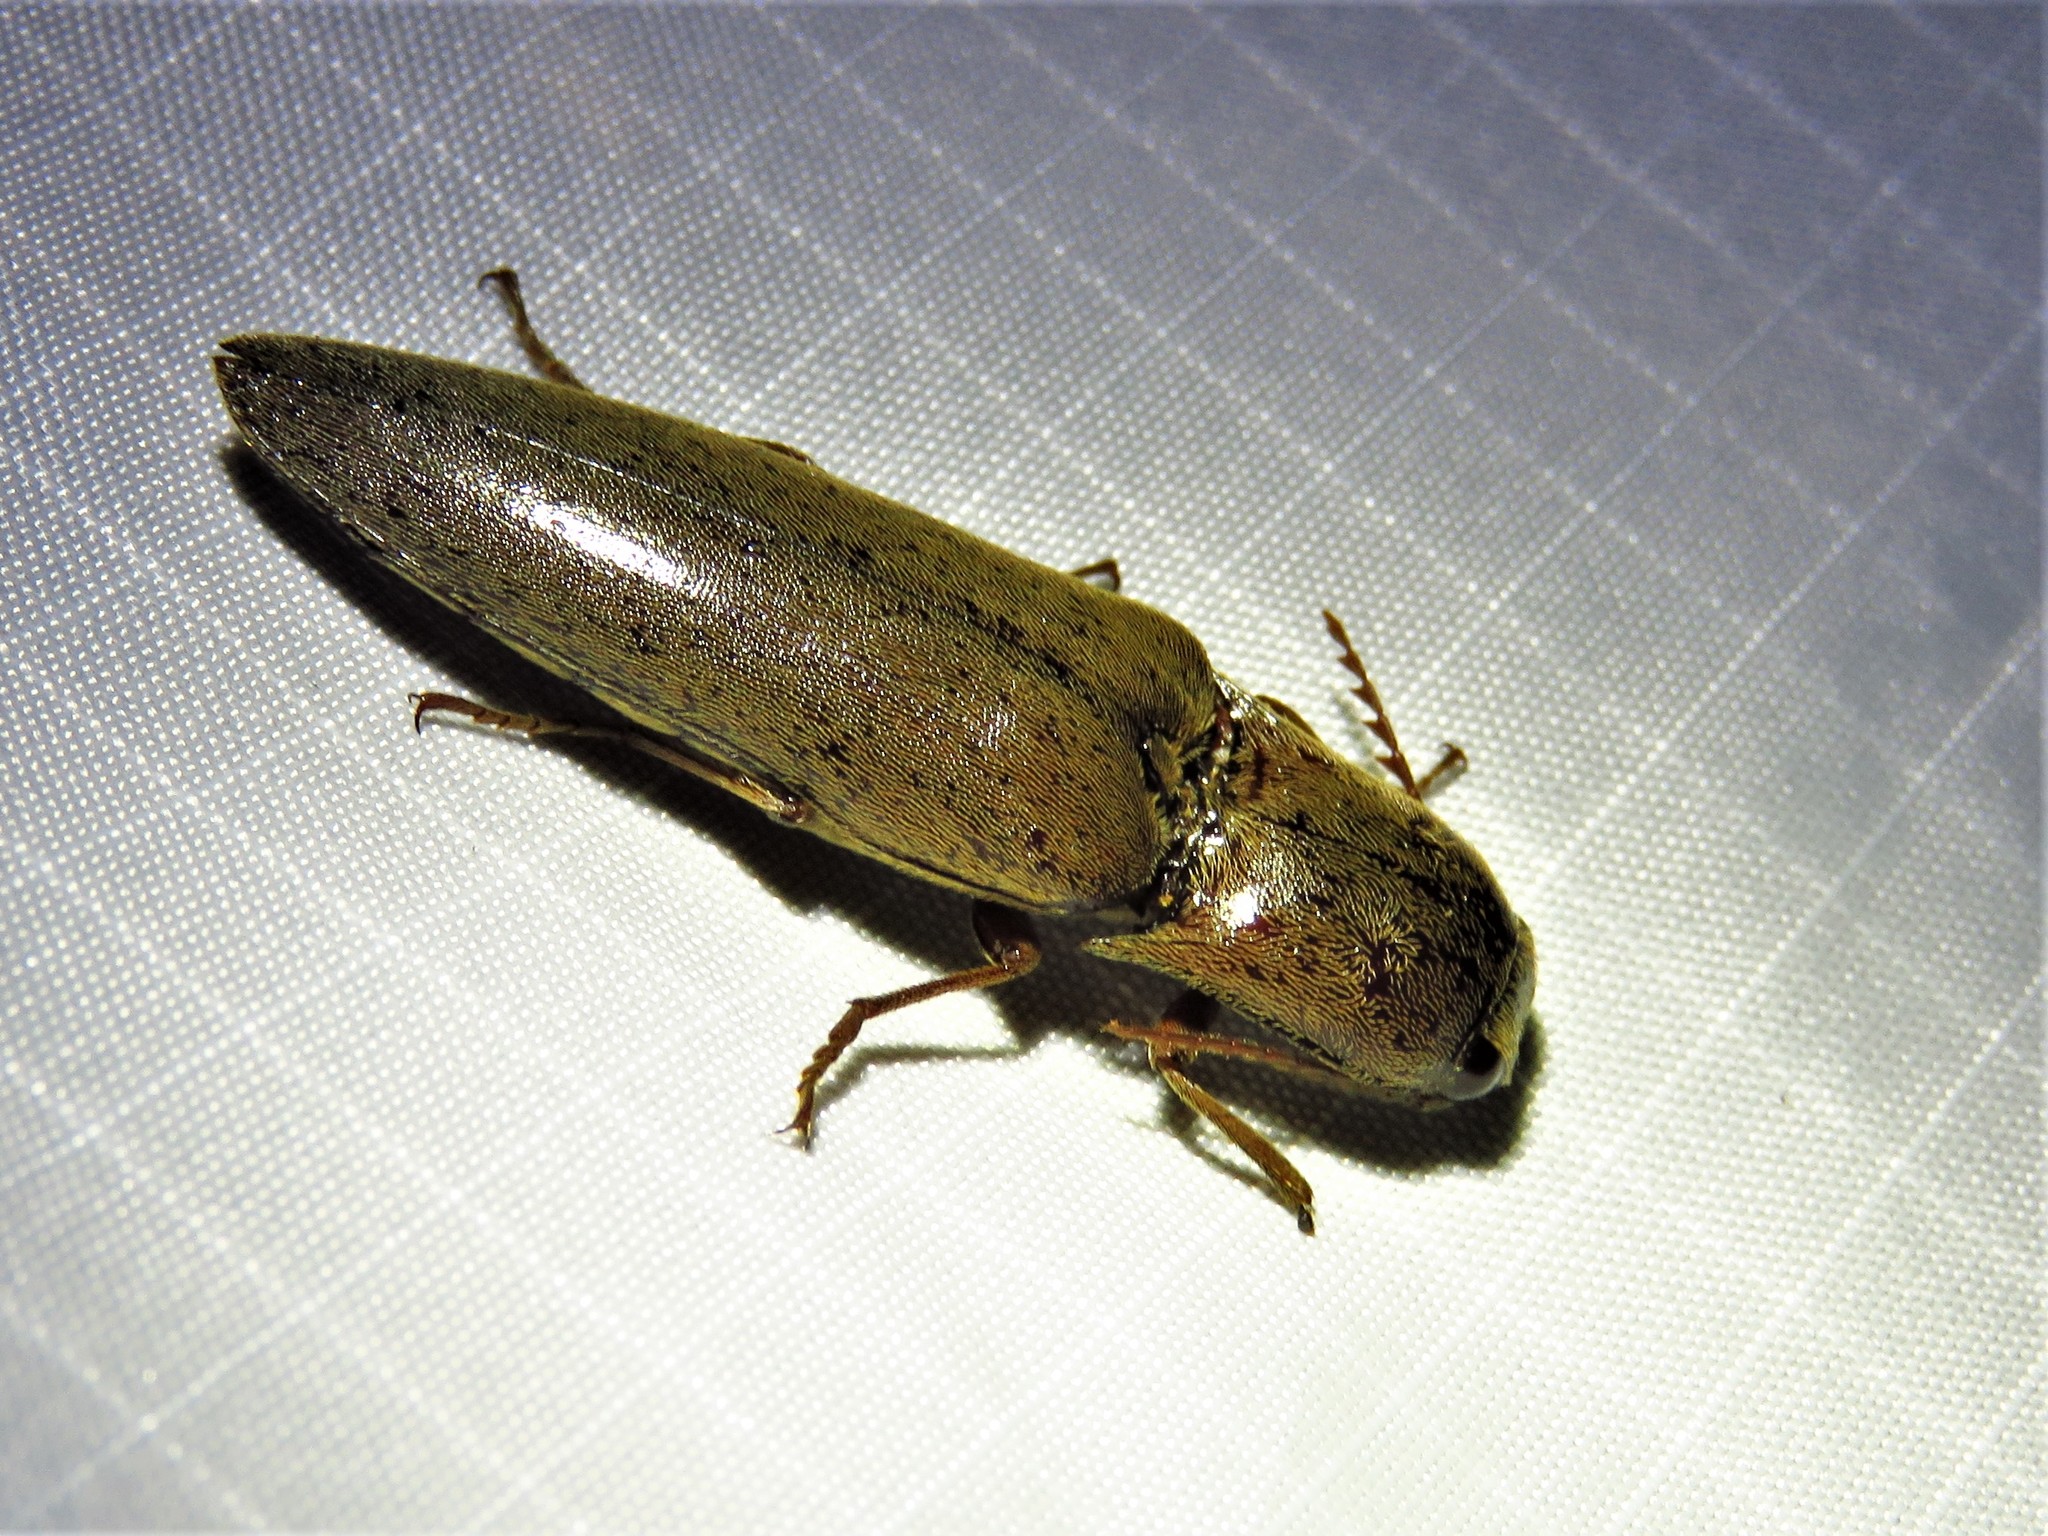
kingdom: Animalia
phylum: Arthropoda
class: Insecta
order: Coleoptera
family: Elateridae
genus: Orthostethus
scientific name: Orthostethus infuscatus
